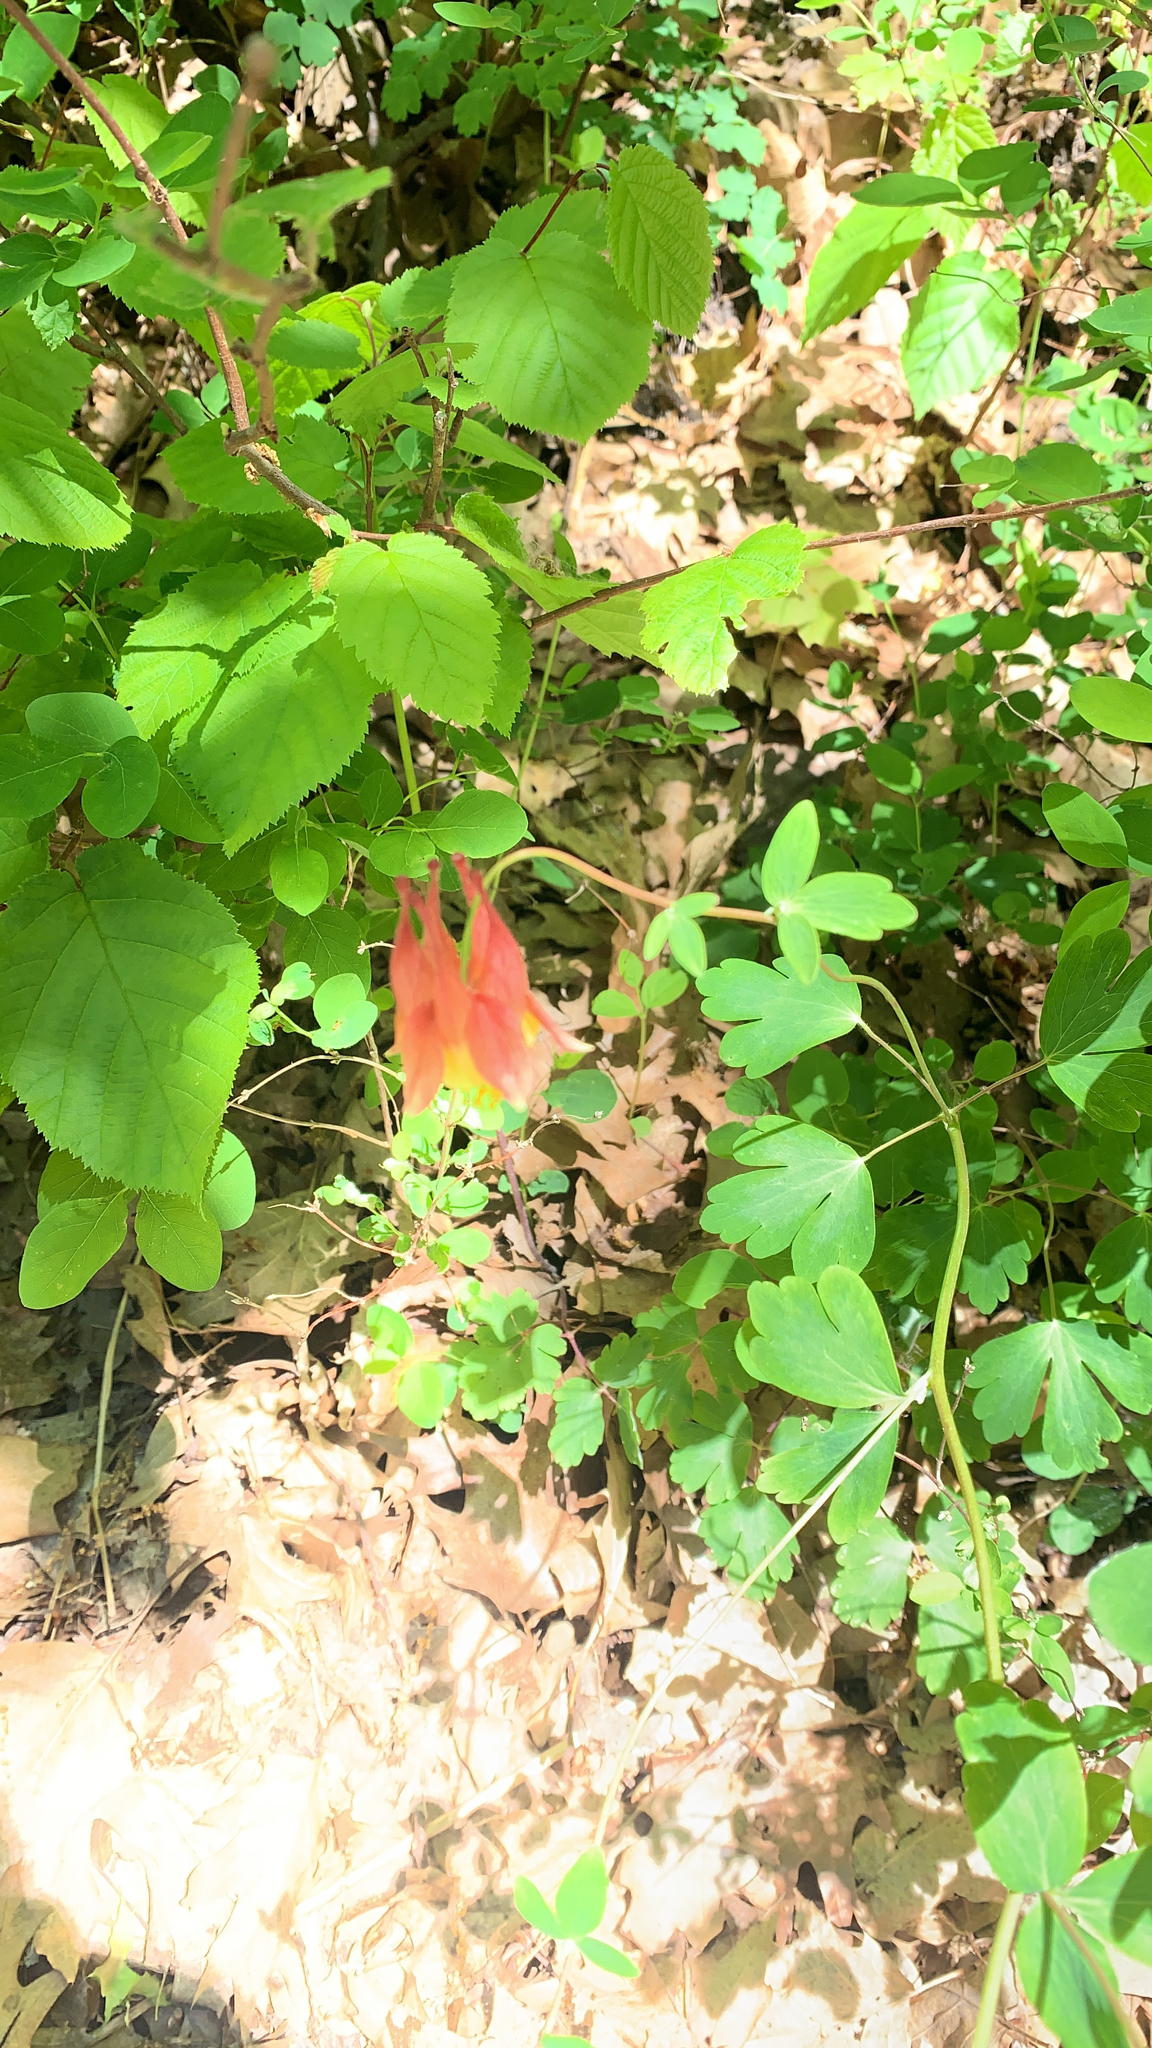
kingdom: Plantae
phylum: Tracheophyta
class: Magnoliopsida
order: Ranunculales
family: Ranunculaceae
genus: Aquilegia
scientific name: Aquilegia canadensis
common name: American columbine
